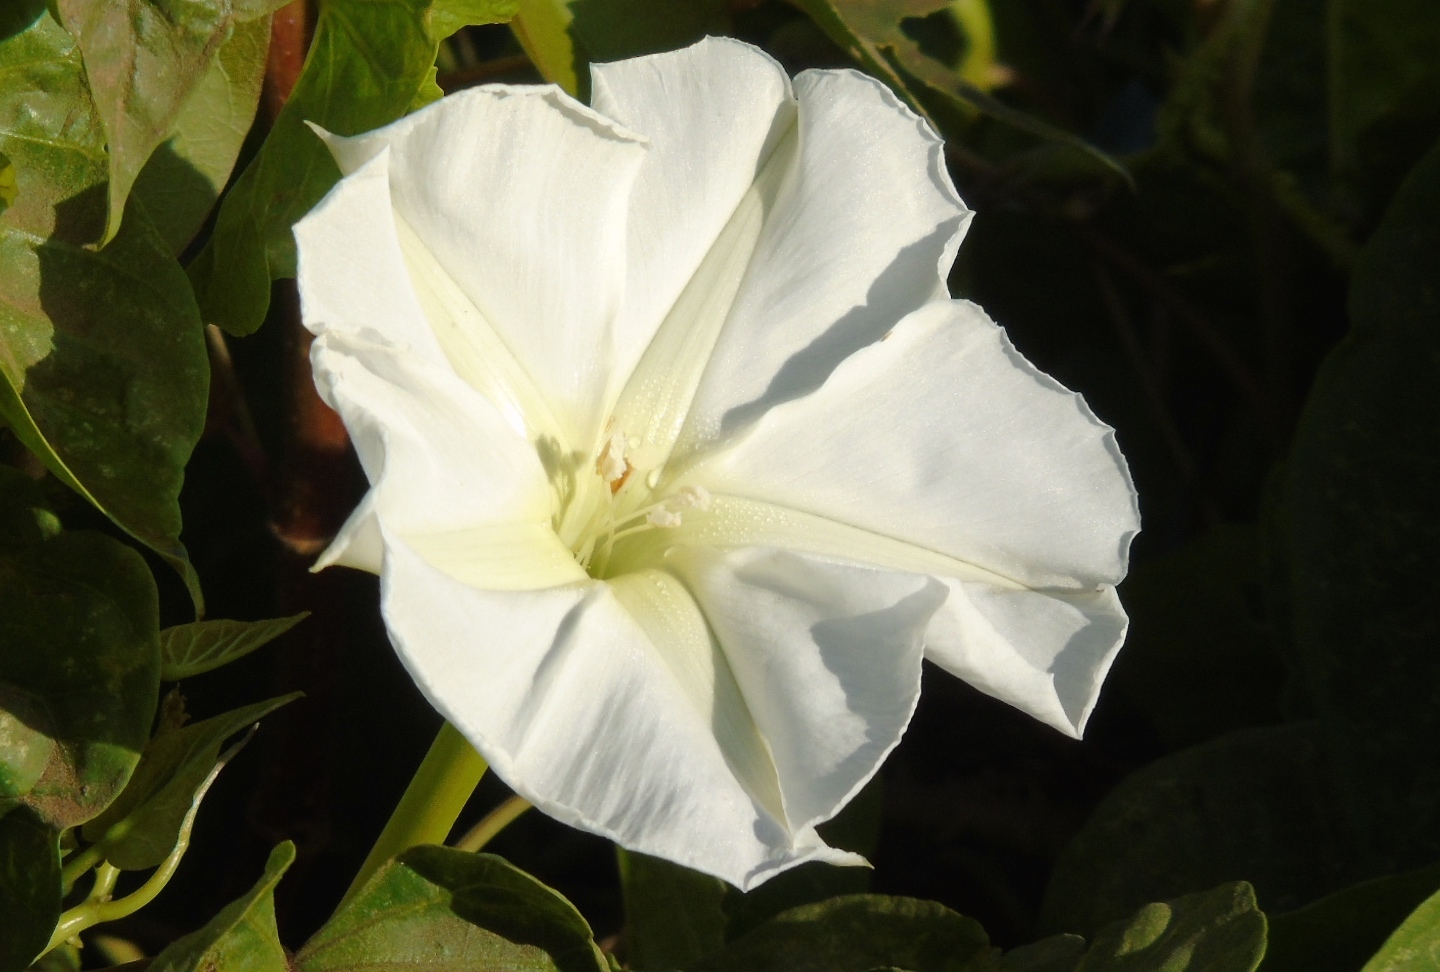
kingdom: Plantae
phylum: Tracheophyta
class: Magnoliopsida
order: Solanales
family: Convolvulaceae
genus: Ipomoea
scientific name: Ipomoea alba
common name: Moonflower
